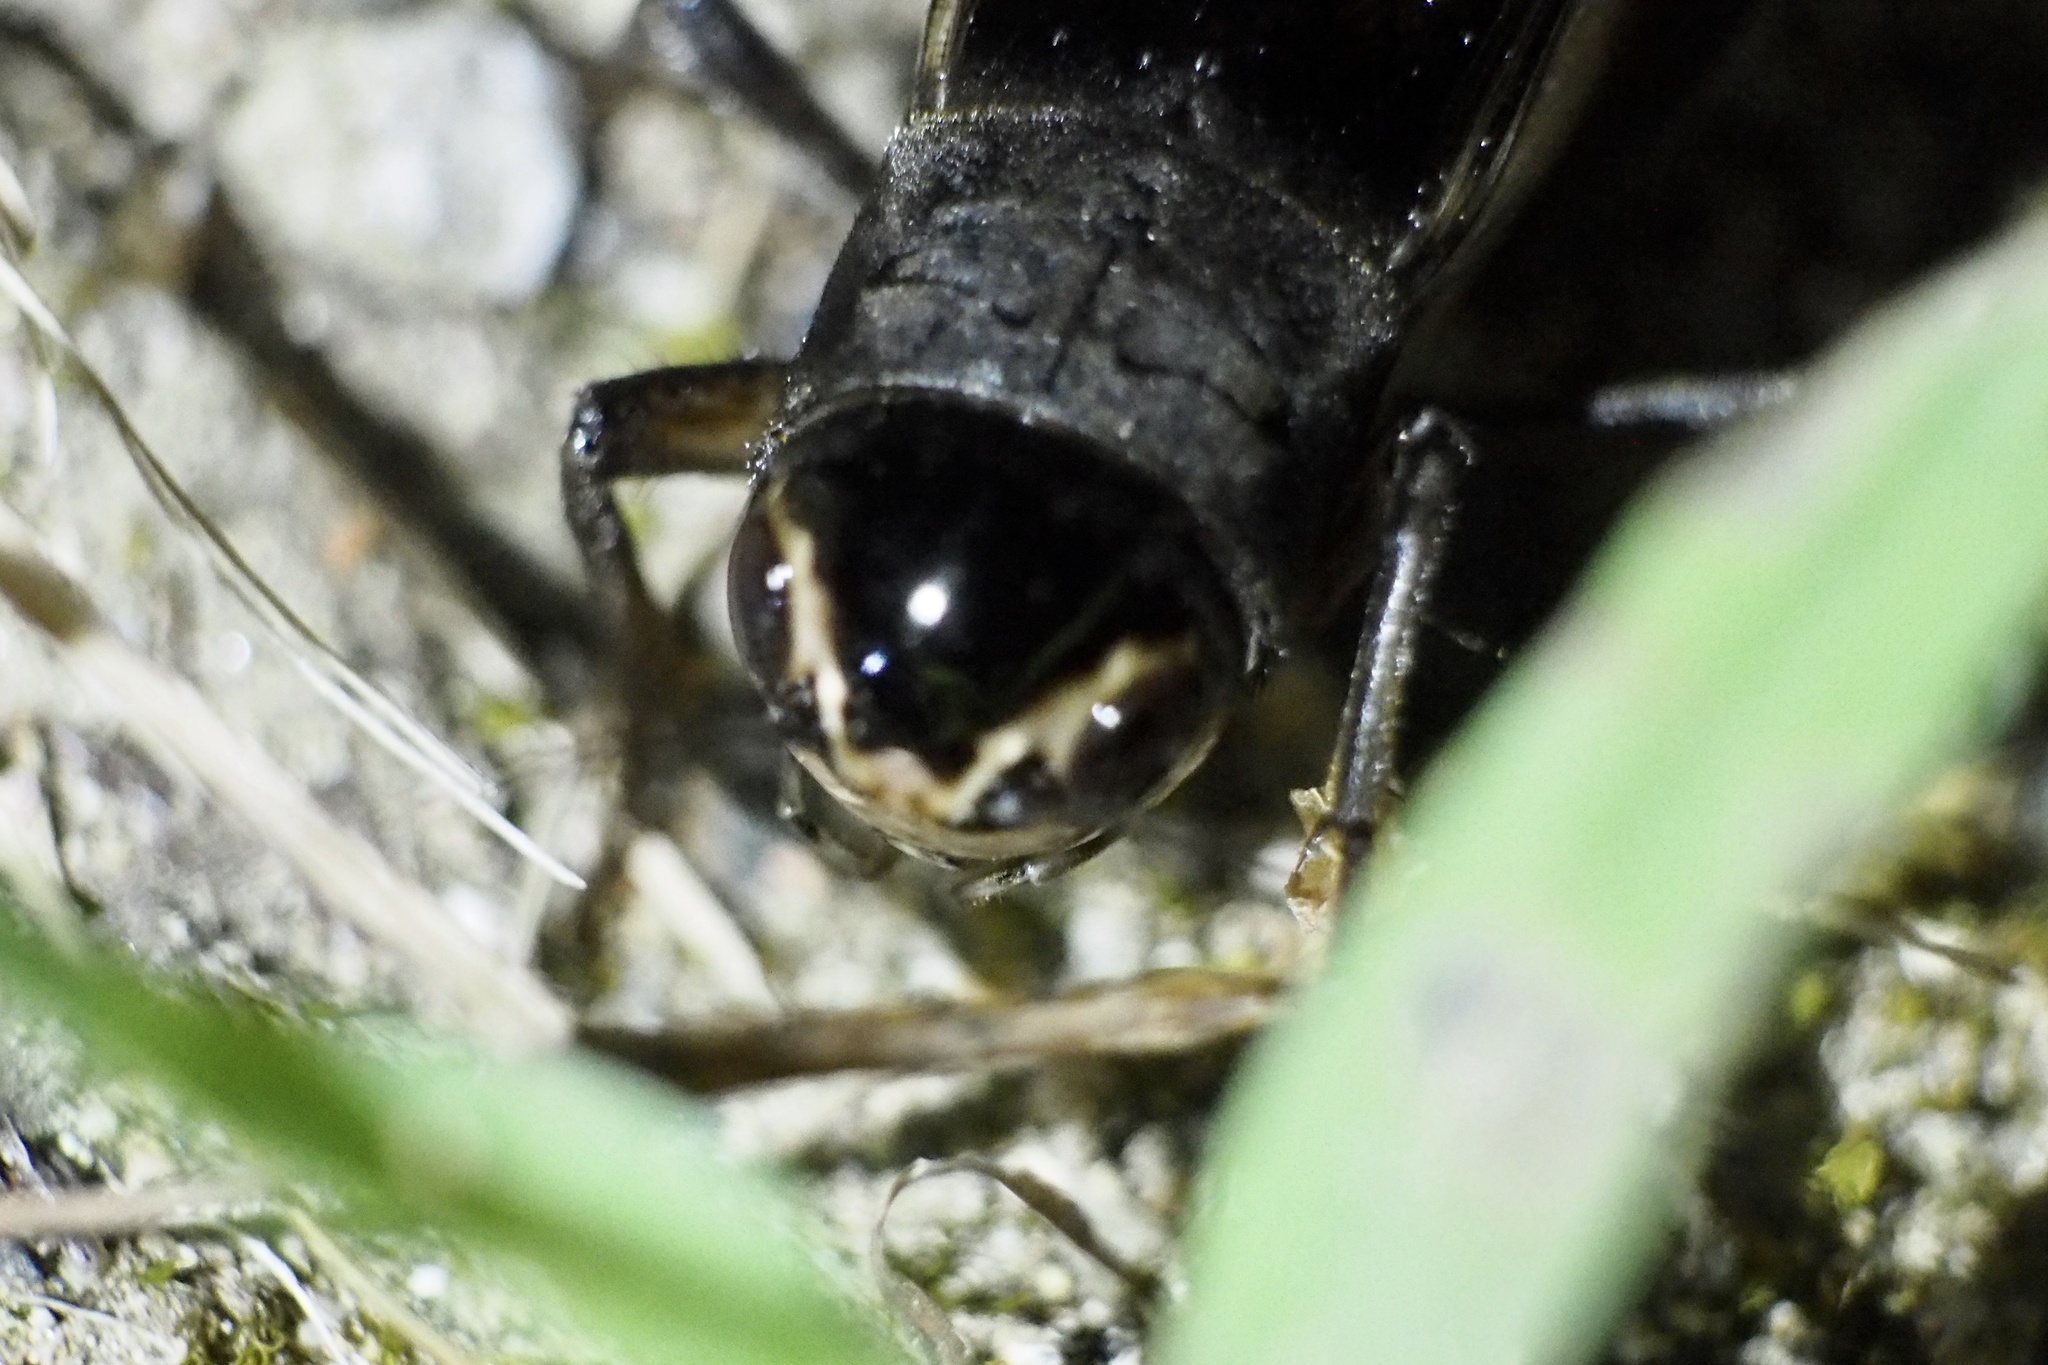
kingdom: Animalia
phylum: Arthropoda
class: Insecta
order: Orthoptera
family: Gryllidae
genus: Teleogryllus
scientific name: Teleogryllus emma
